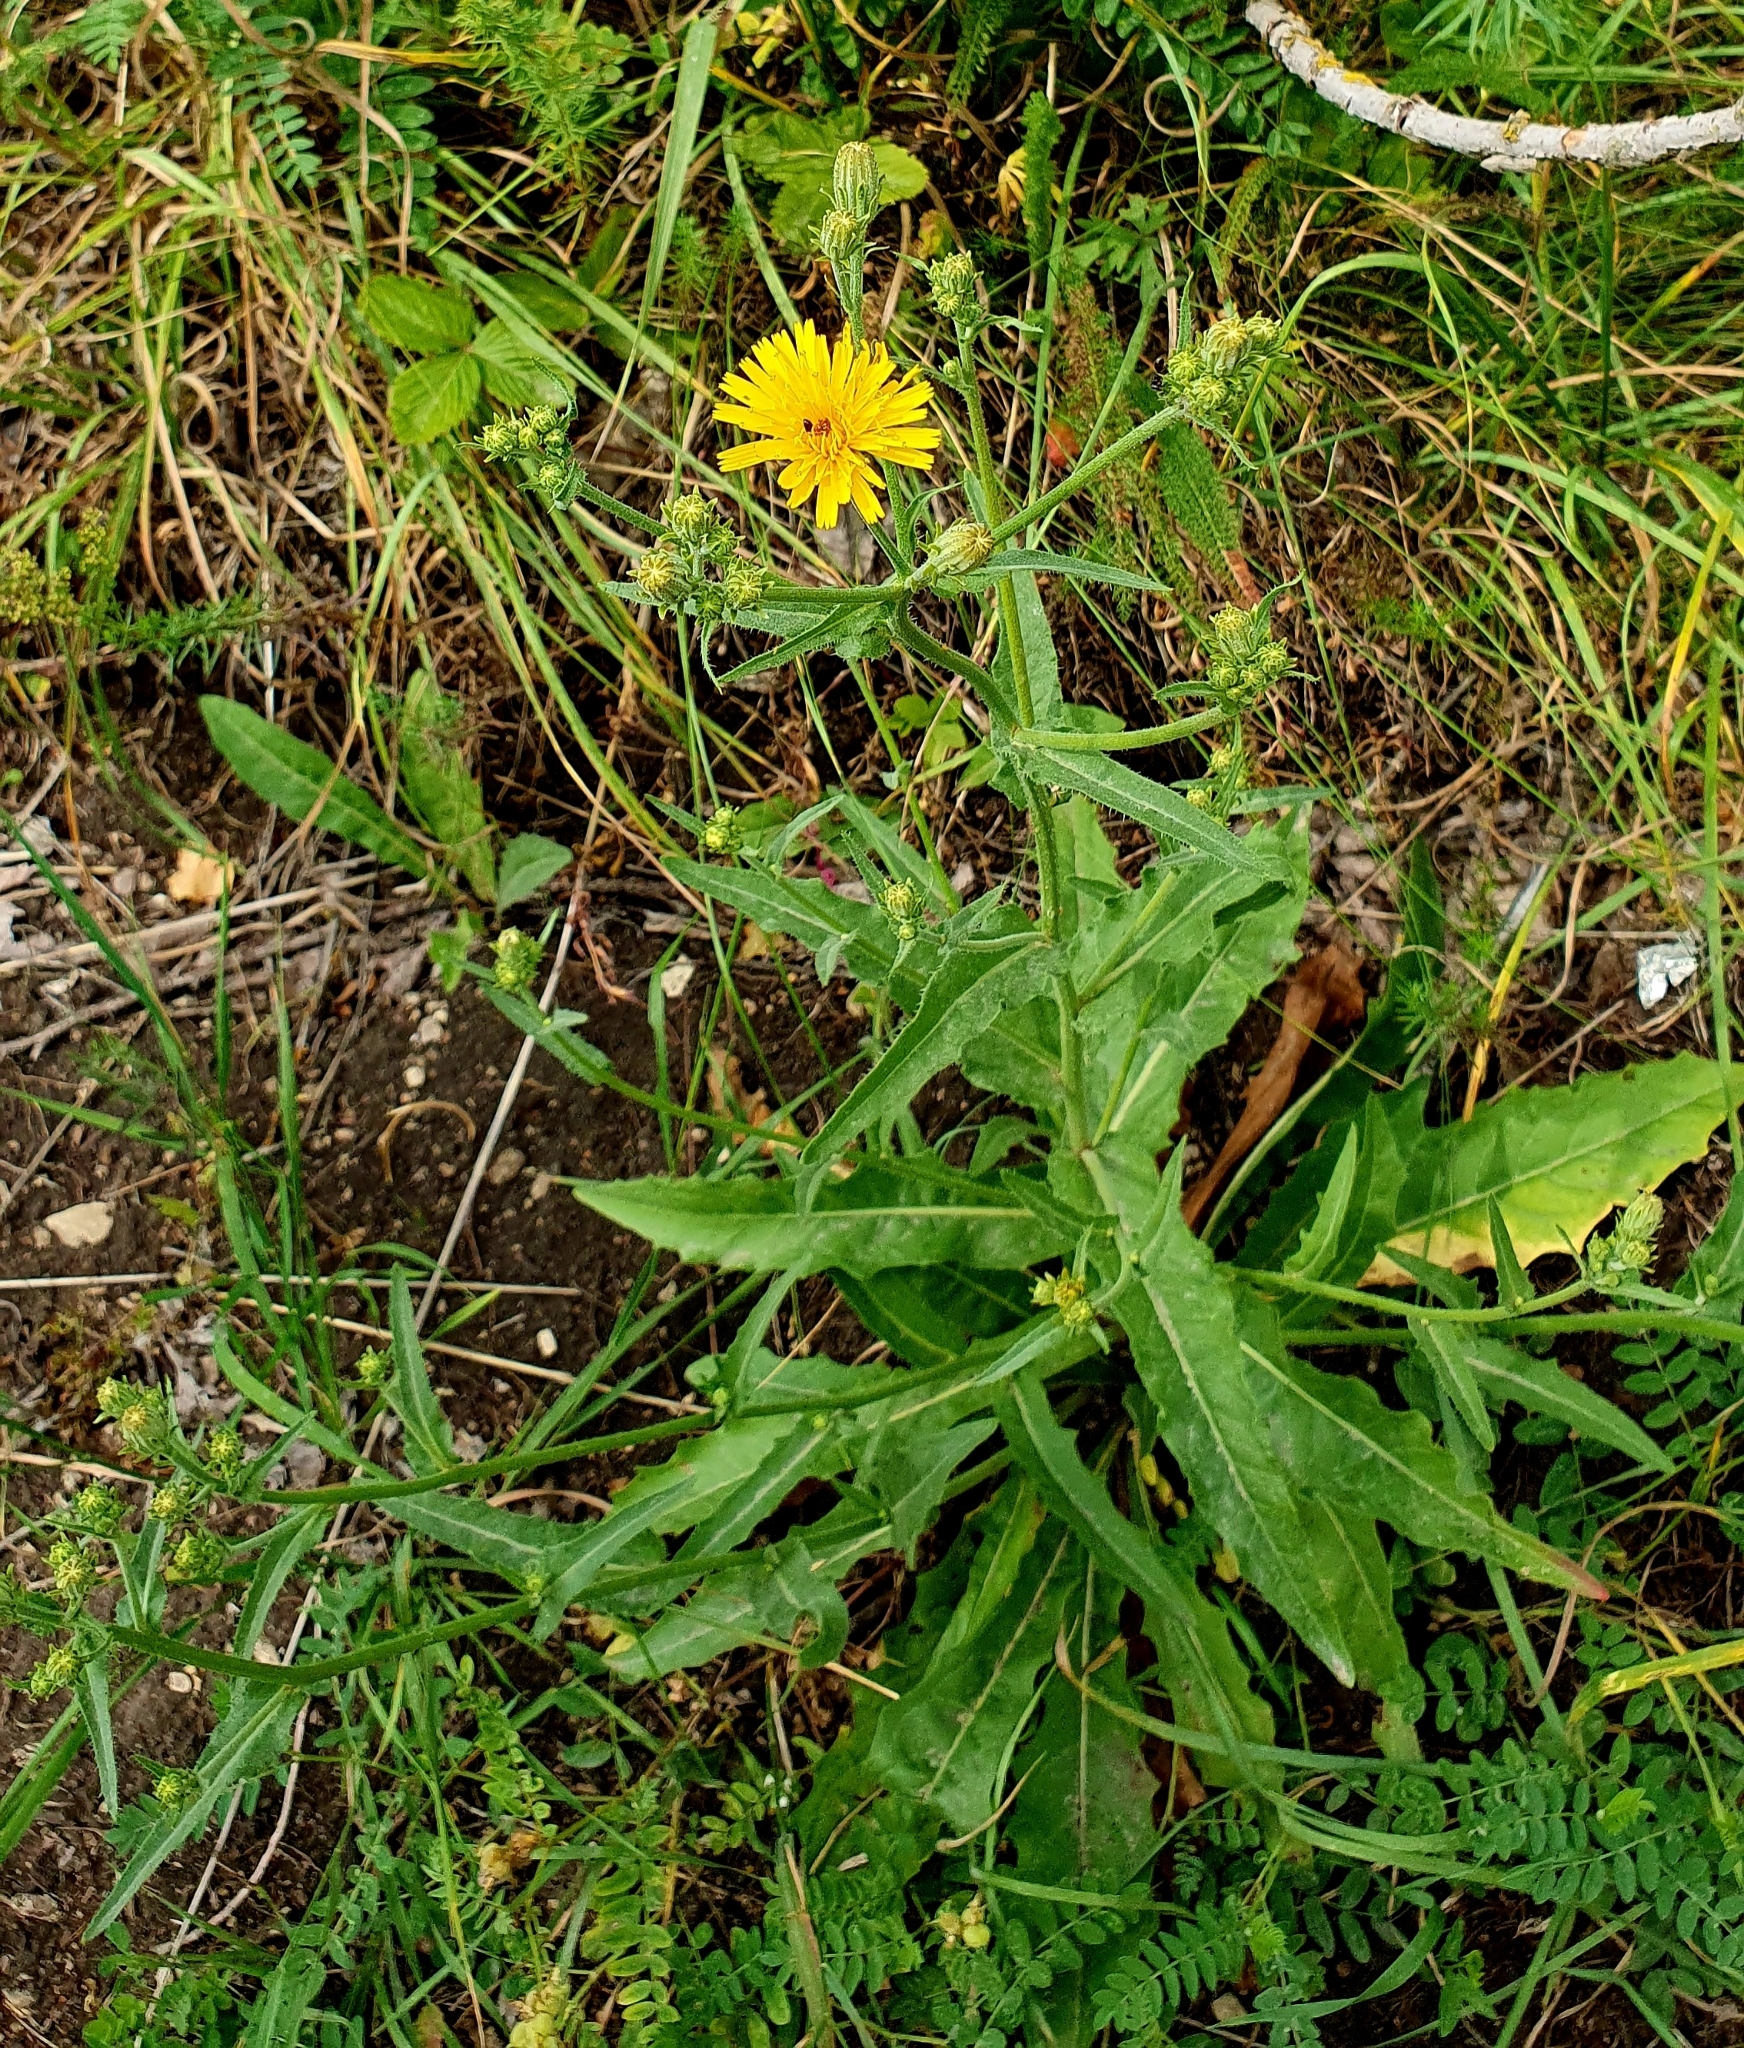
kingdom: Plantae
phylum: Tracheophyta
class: Magnoliopsida
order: Asterales
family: Asteraceae
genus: Picris
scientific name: Picris hieracioides
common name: Hawkweed oxtongue
